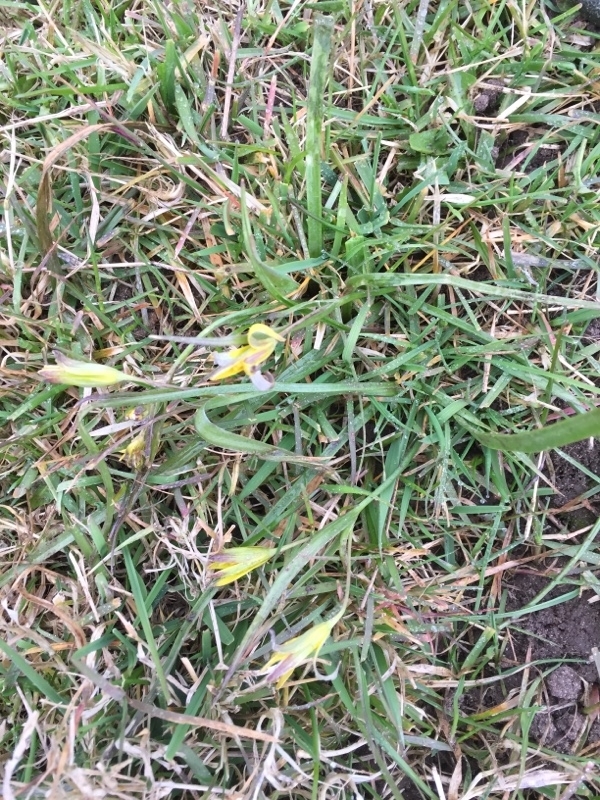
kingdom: Plantae
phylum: Tracheophyta
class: Liliopsida
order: Liliales
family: Liliaceae
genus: Gagea
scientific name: Gagea pratensis
